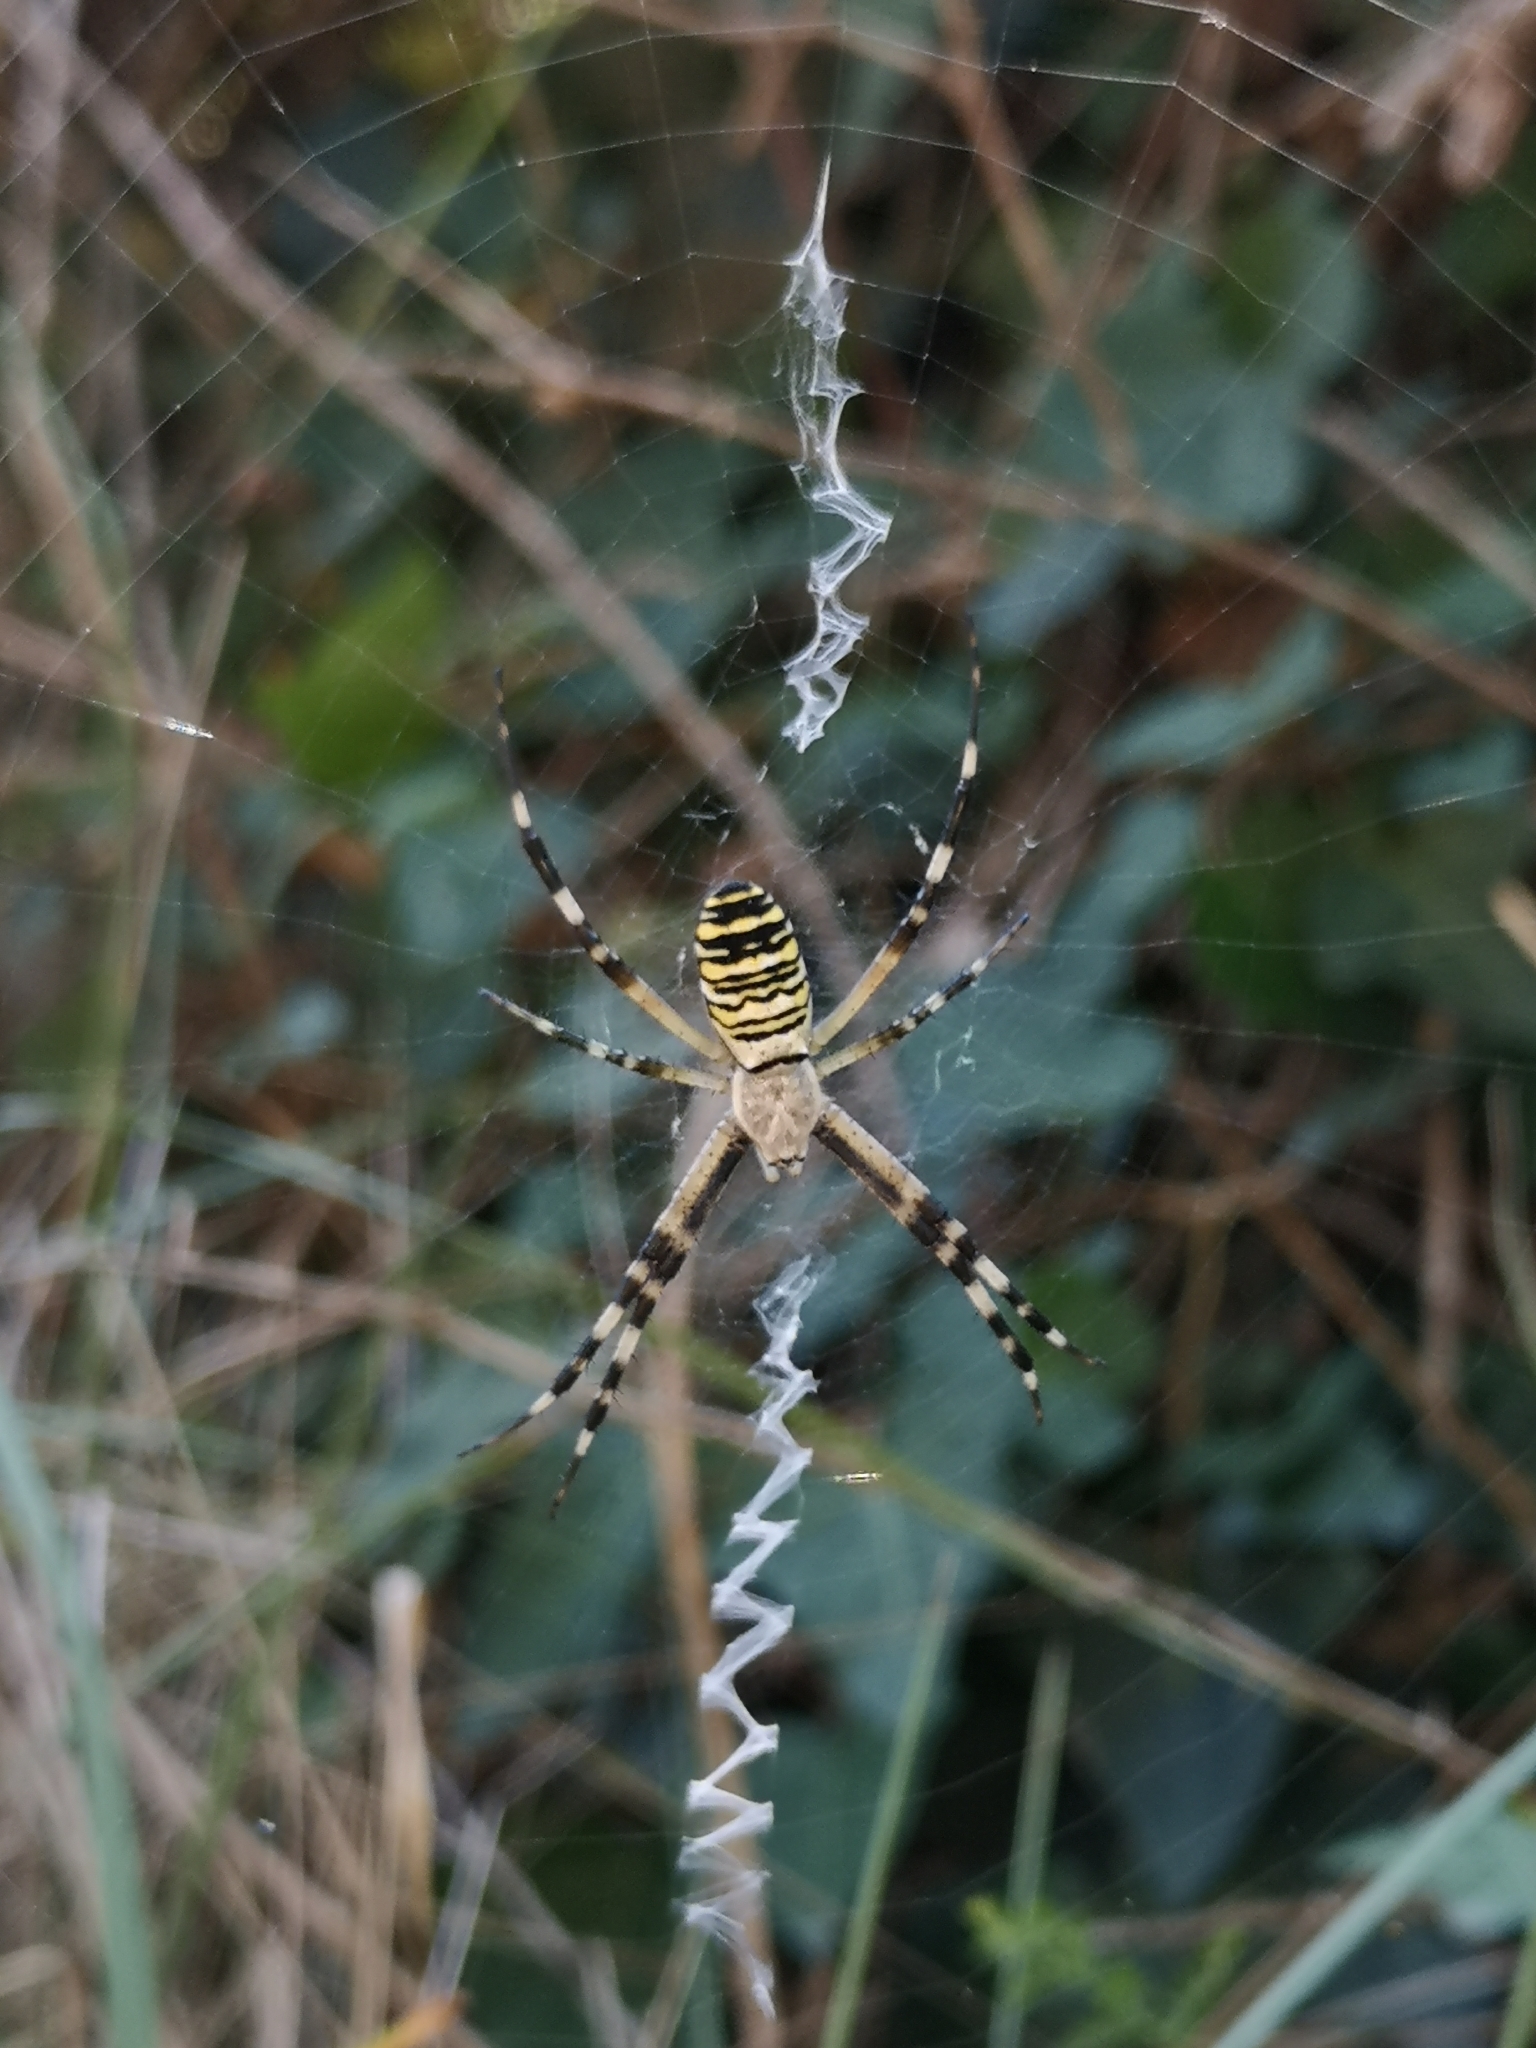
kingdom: Animalia
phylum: Arthropoda
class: Arachnida
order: Araneae
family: Araneidae
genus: Argiope
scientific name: Argiope bruennichi
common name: Wasp spider
